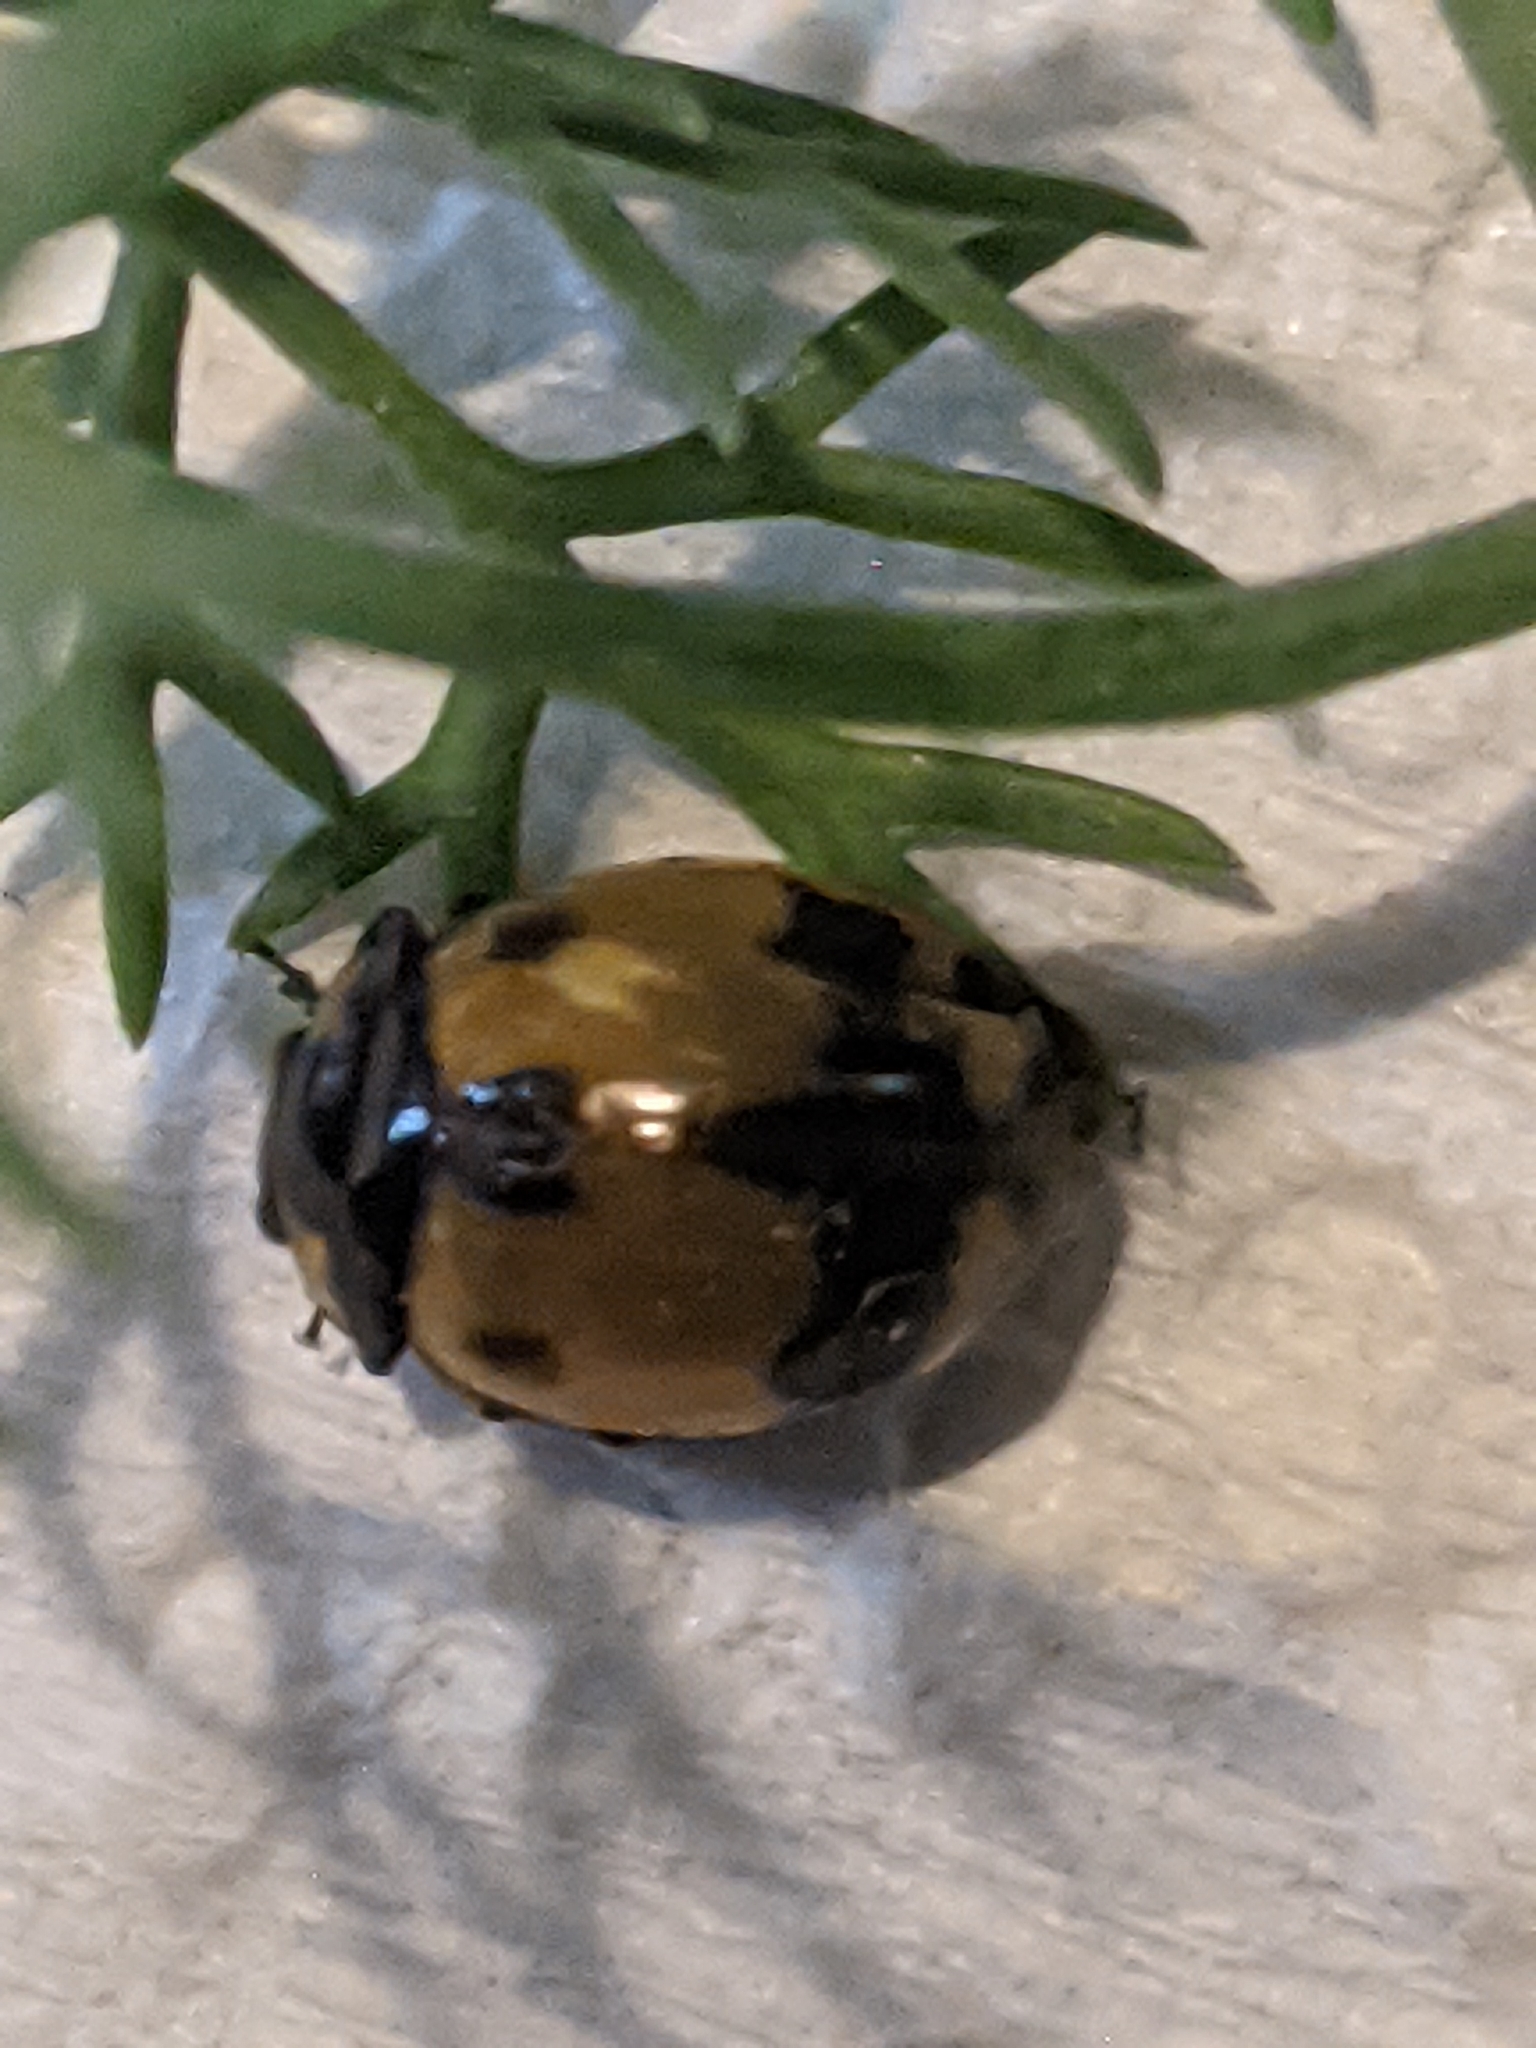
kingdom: Animalia
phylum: Arthropoda
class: Insecta
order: Coleoptera
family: Coccinellidae
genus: Coccinella
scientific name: Coccinella transversalis
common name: Transverse lady beetle
